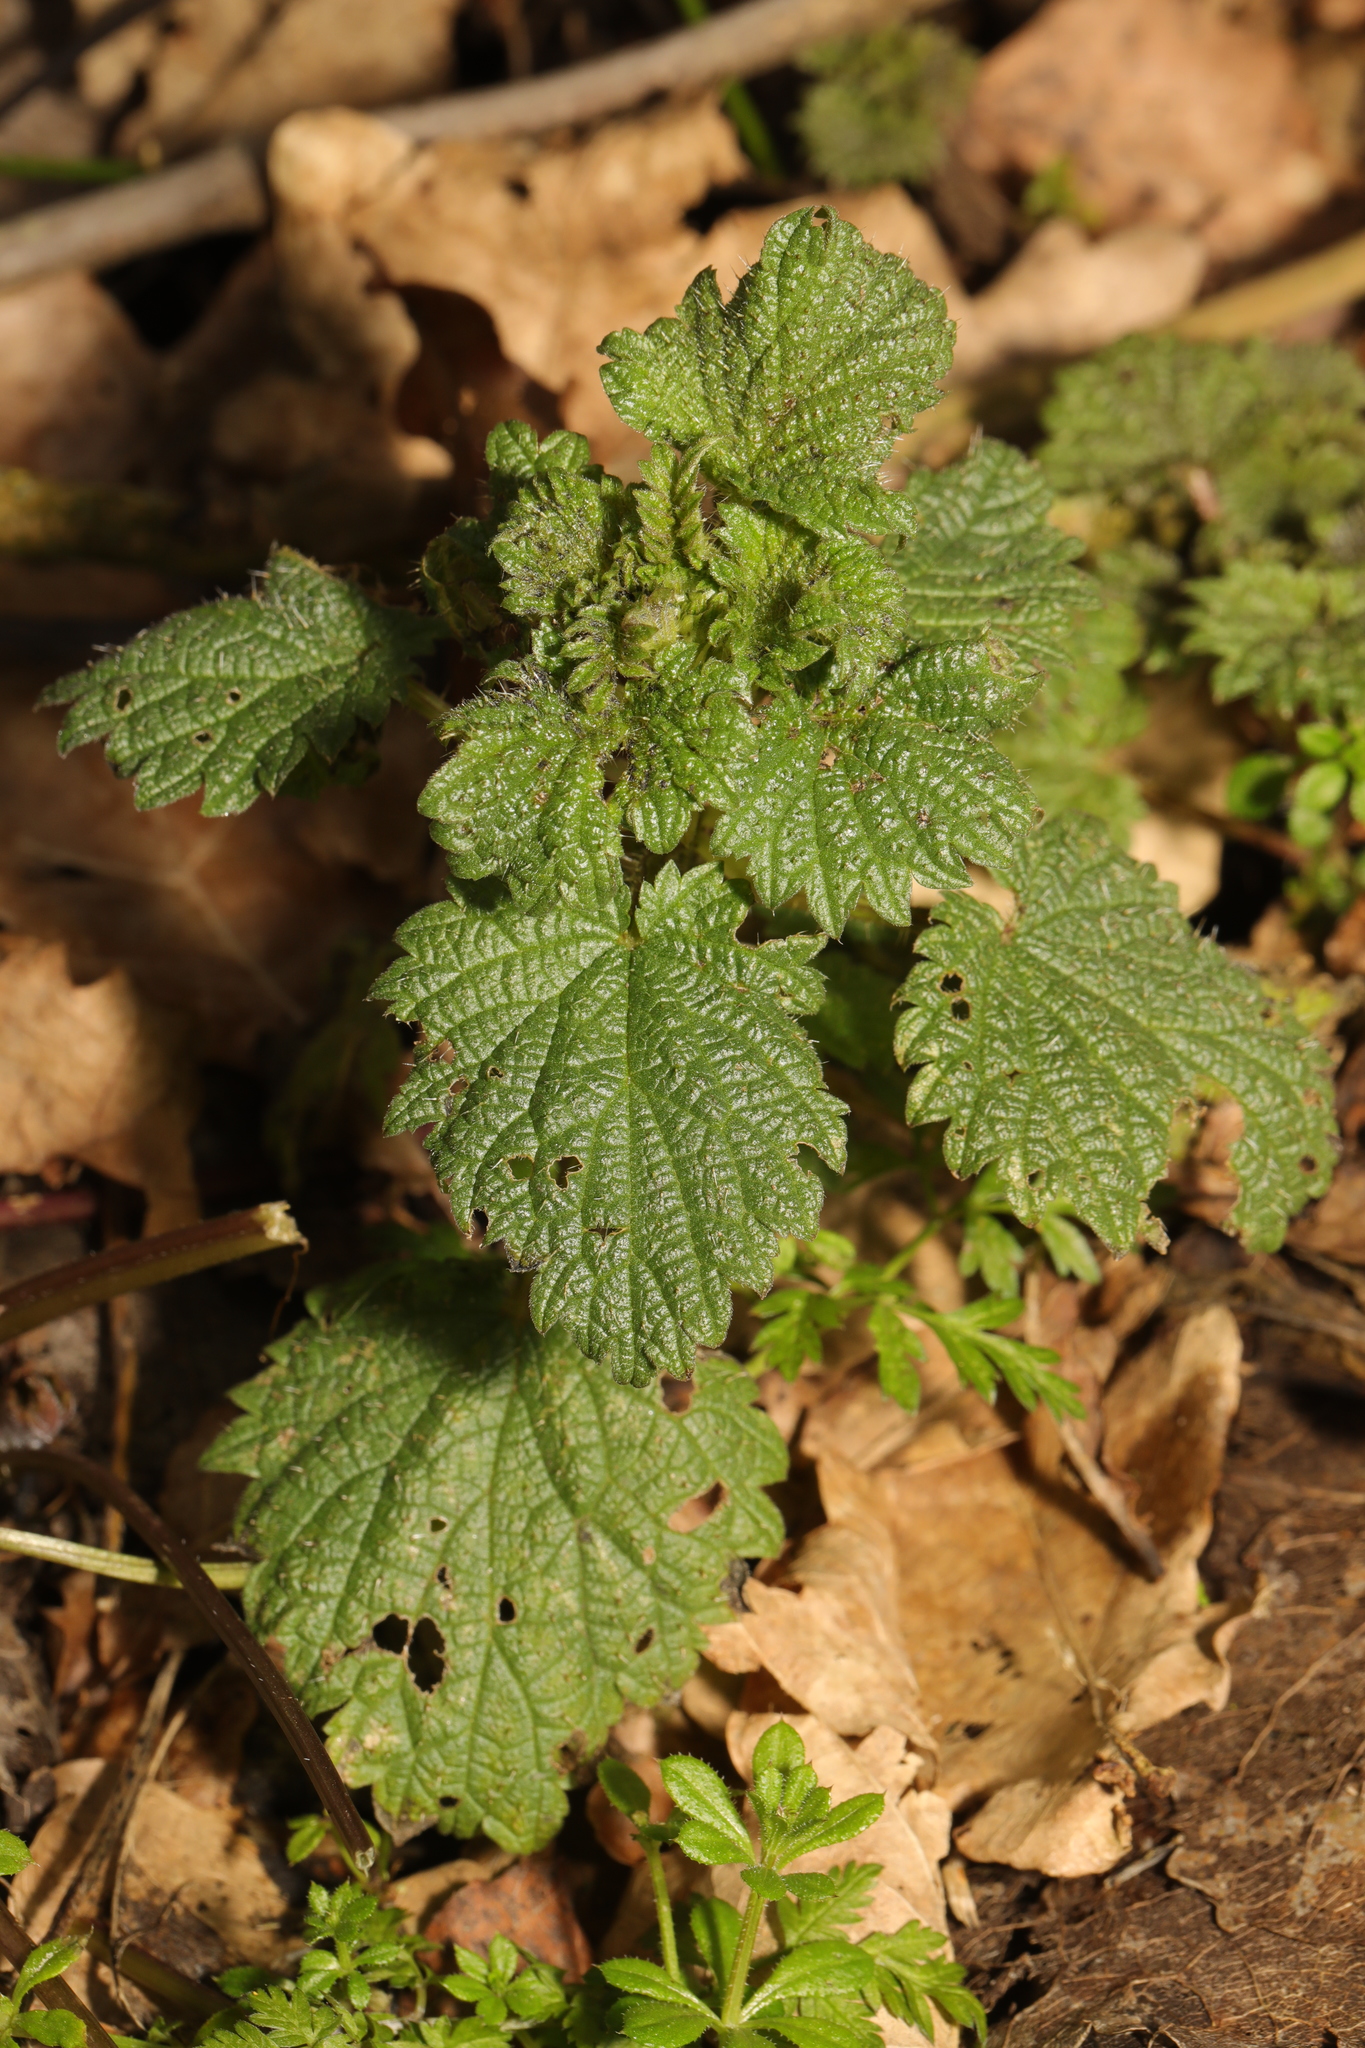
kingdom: Plantae
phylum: Tracheophyta
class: Magnoliopsida
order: Rosales
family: Urticaceae
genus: Urtica
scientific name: Urtica dioica
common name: Common nettle
